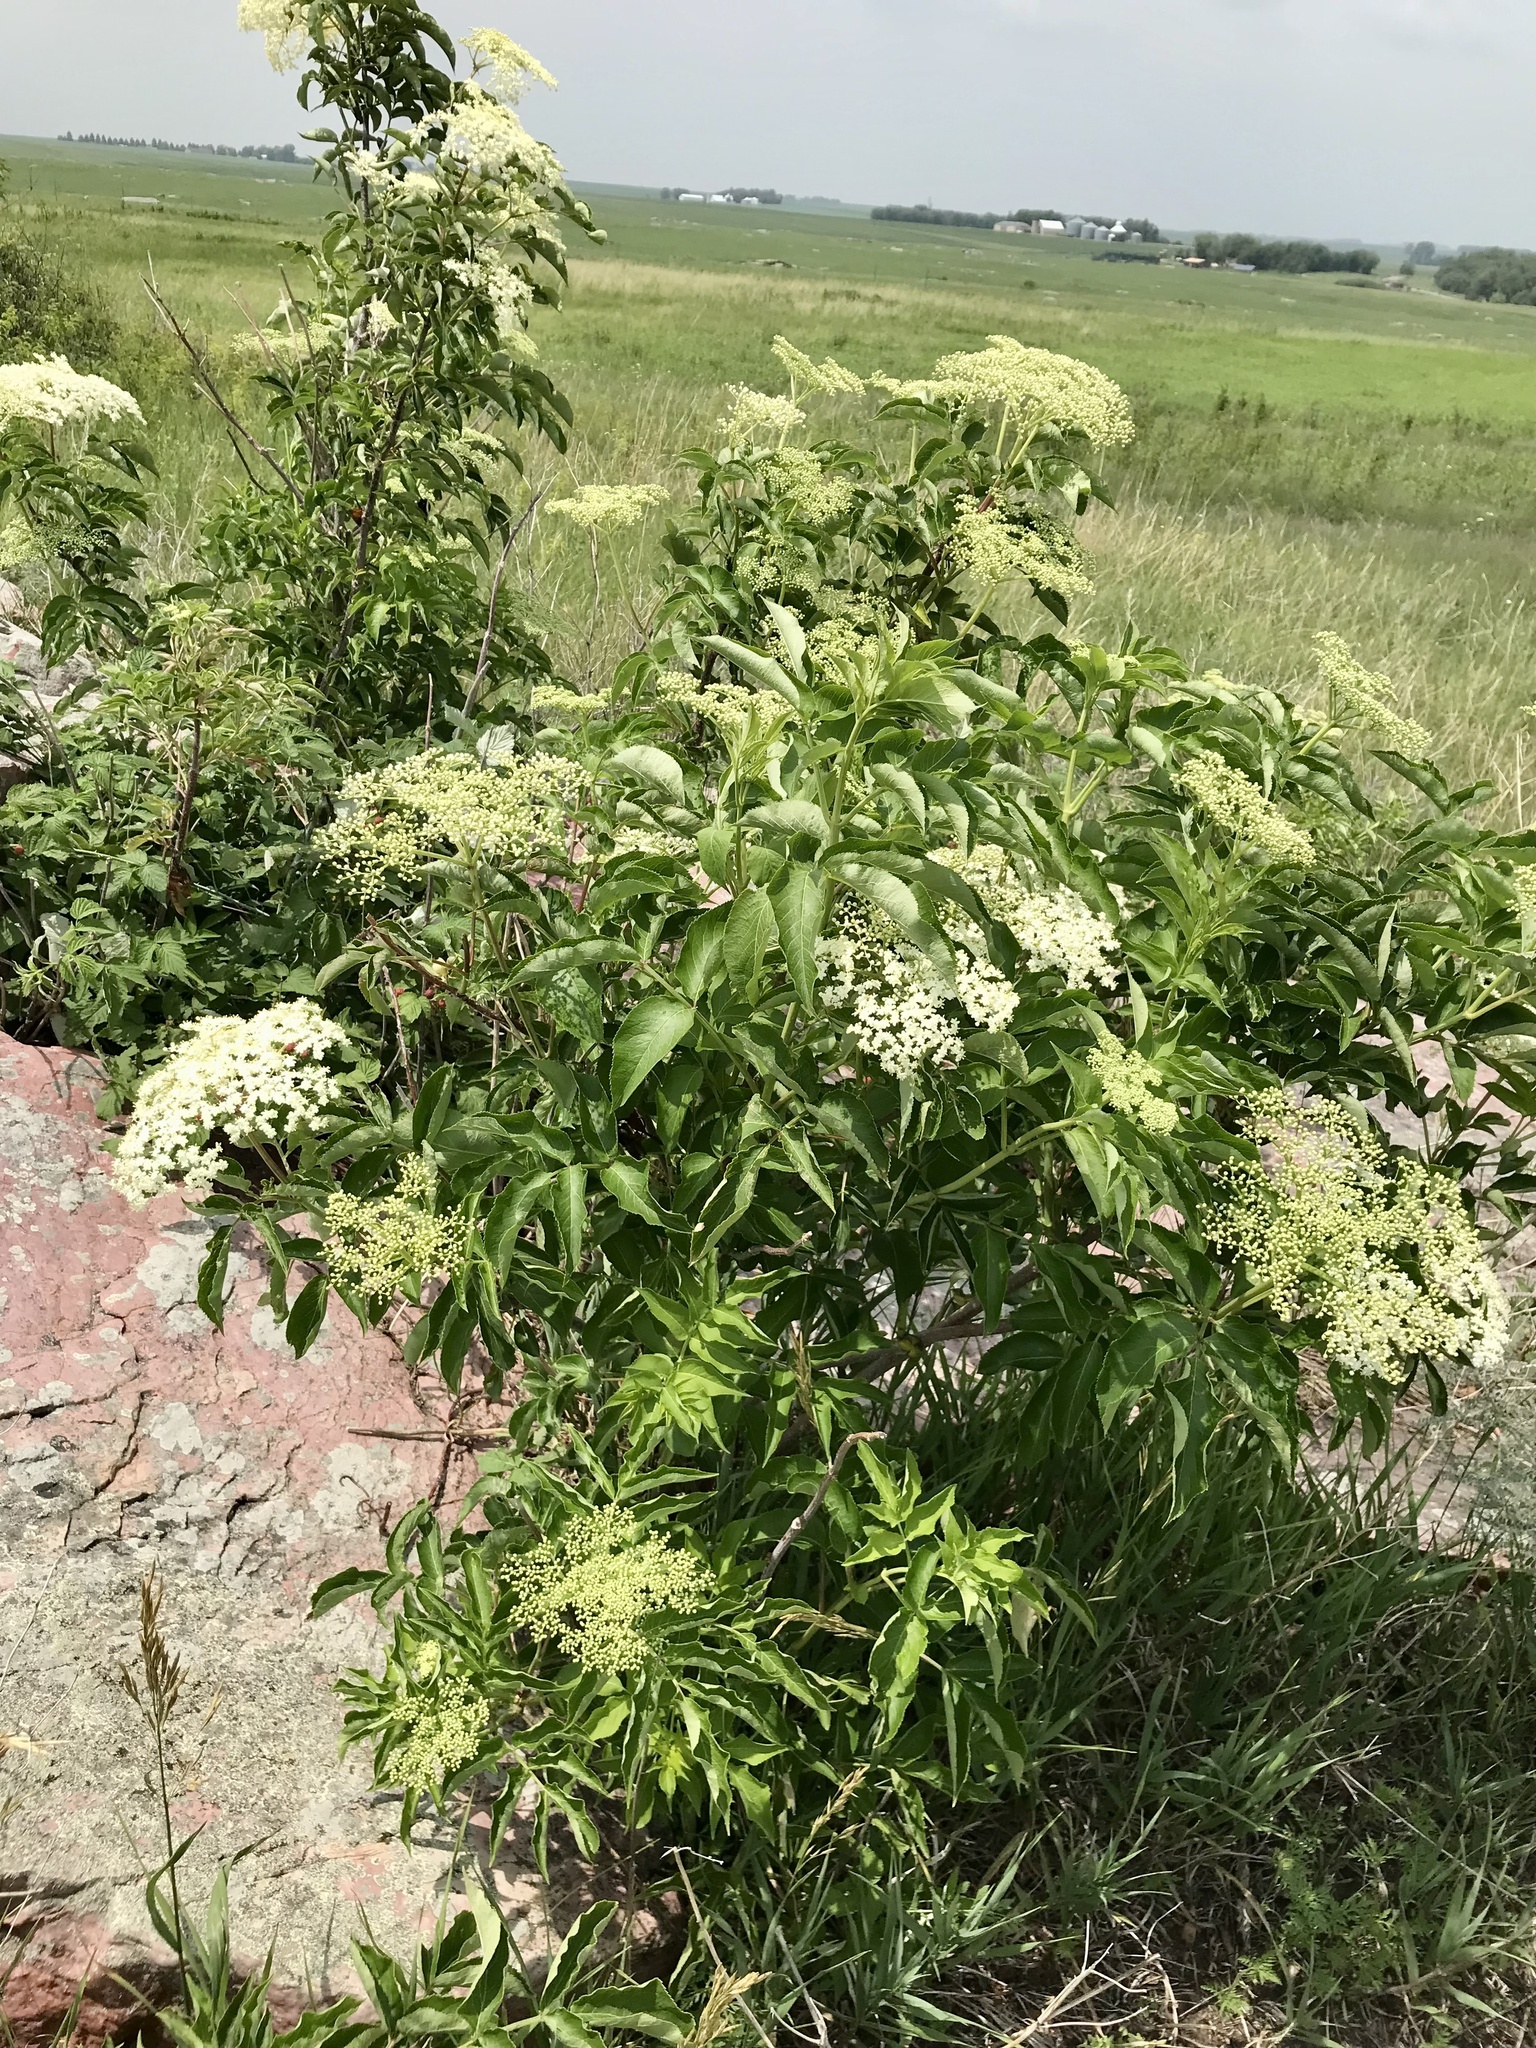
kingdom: Plantae
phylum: Tracheophyta
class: Magnoliopsida
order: Dipsacales
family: Viburnaceae
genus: Sambucus
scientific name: Sambucus canadensis
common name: American elder
